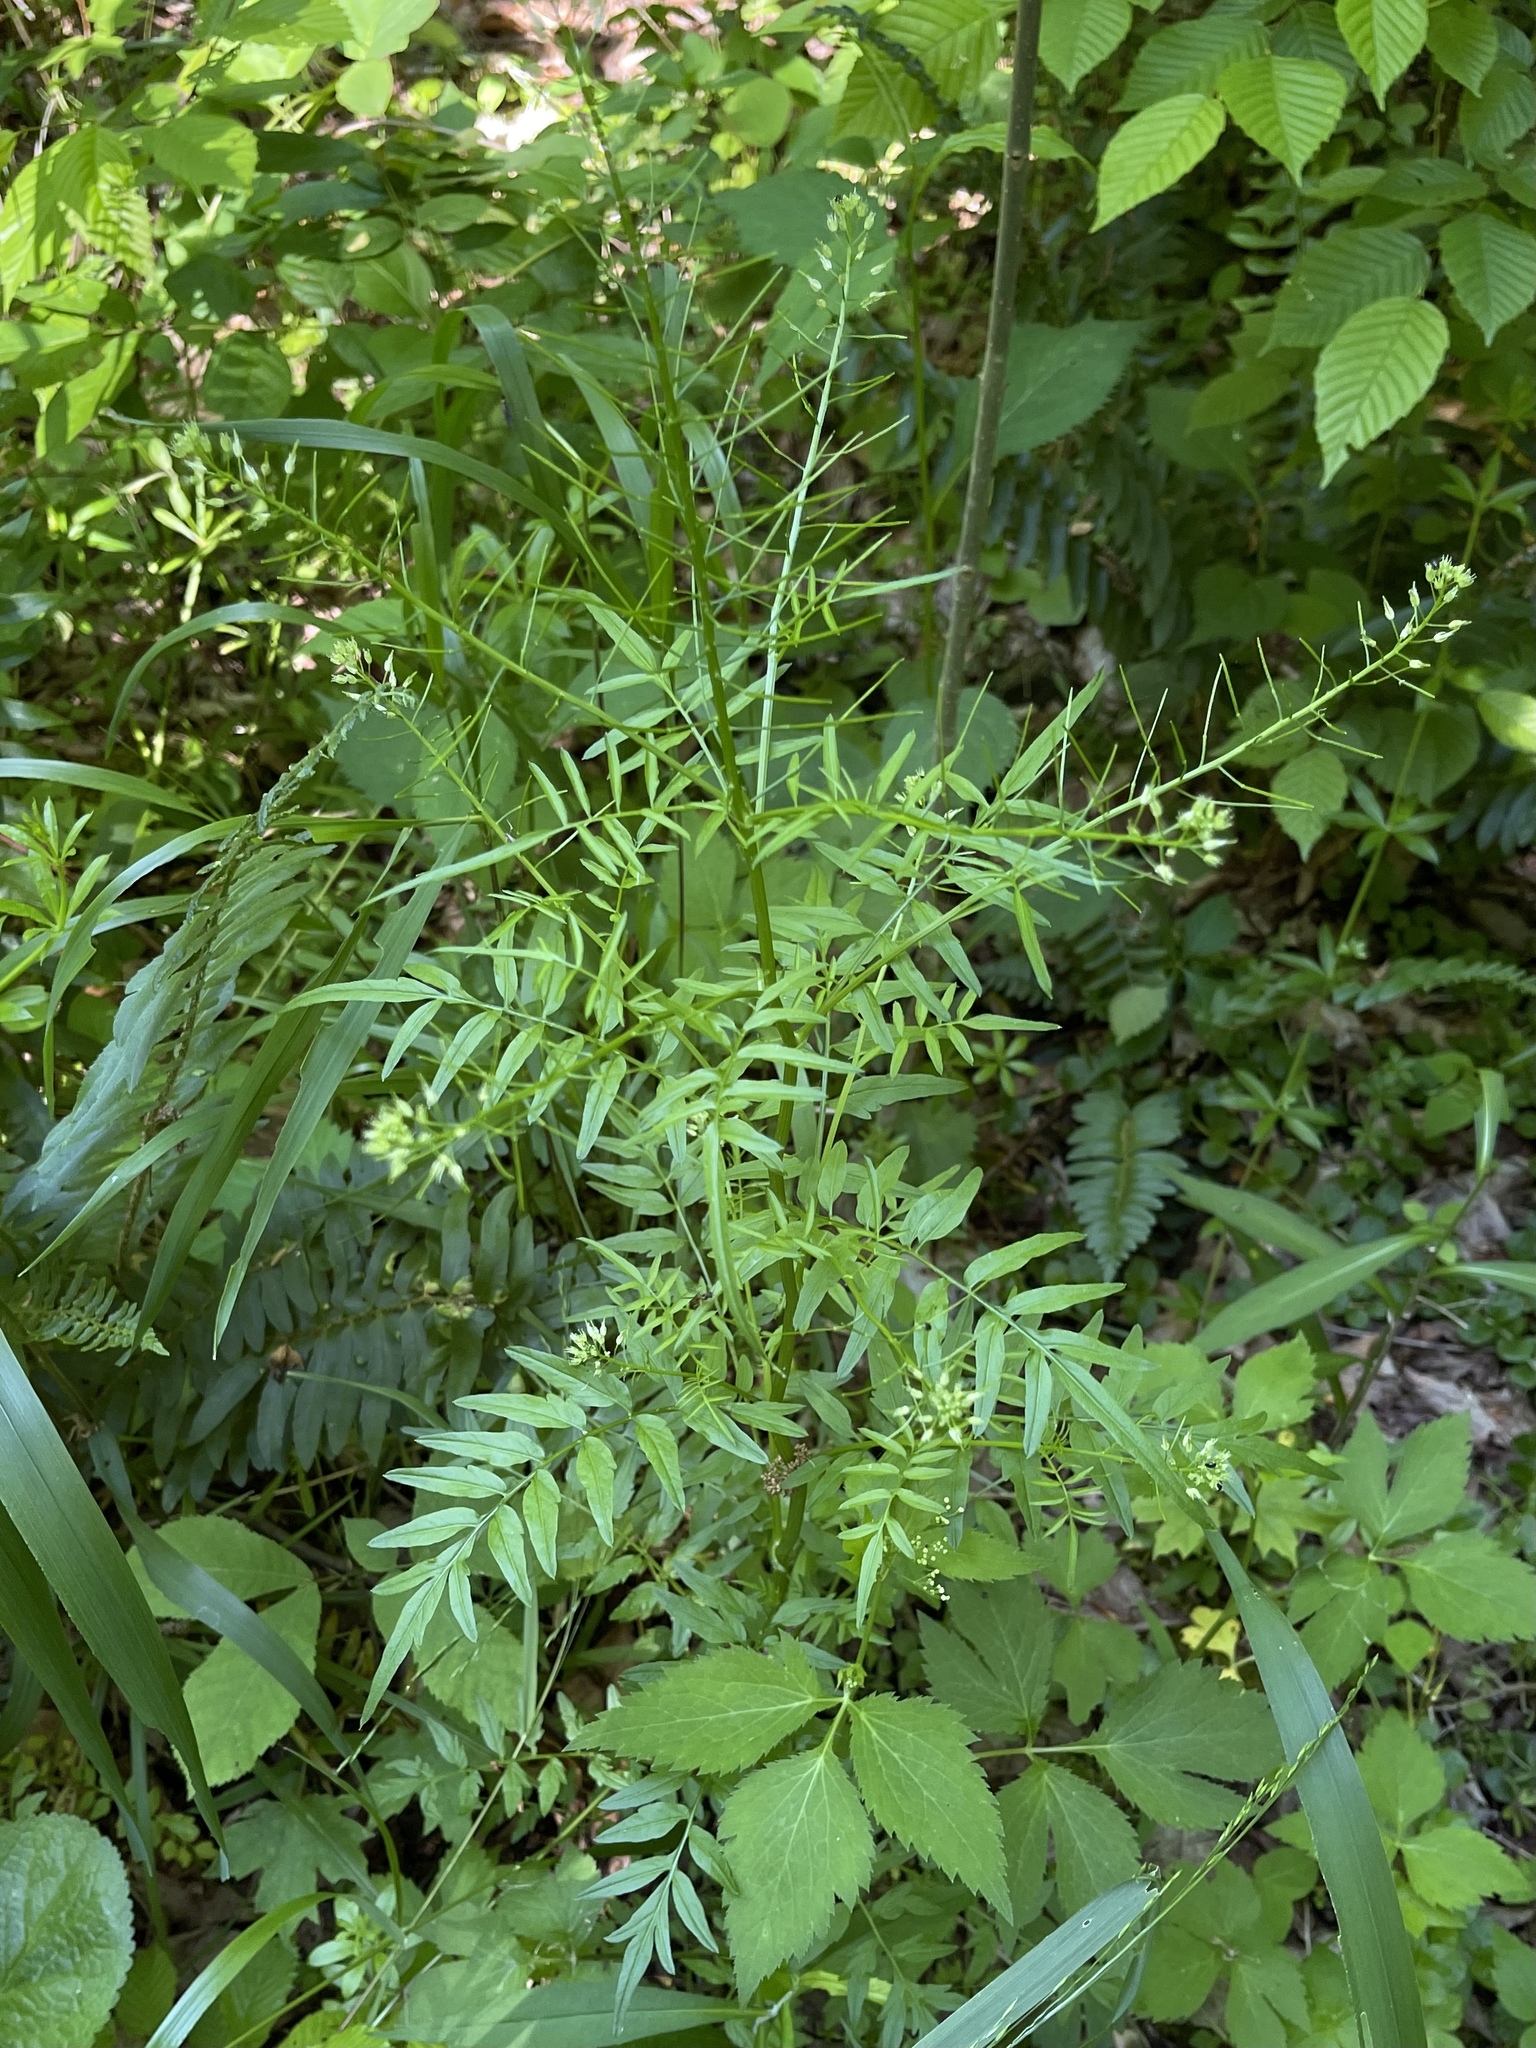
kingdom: Plantae
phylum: Tracheophyta
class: Magnoliopsida
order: Brassicales
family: Brassicaceae
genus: Cardamine
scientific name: Cardamine impatiens
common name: Narrow-leaved bitter-cress
